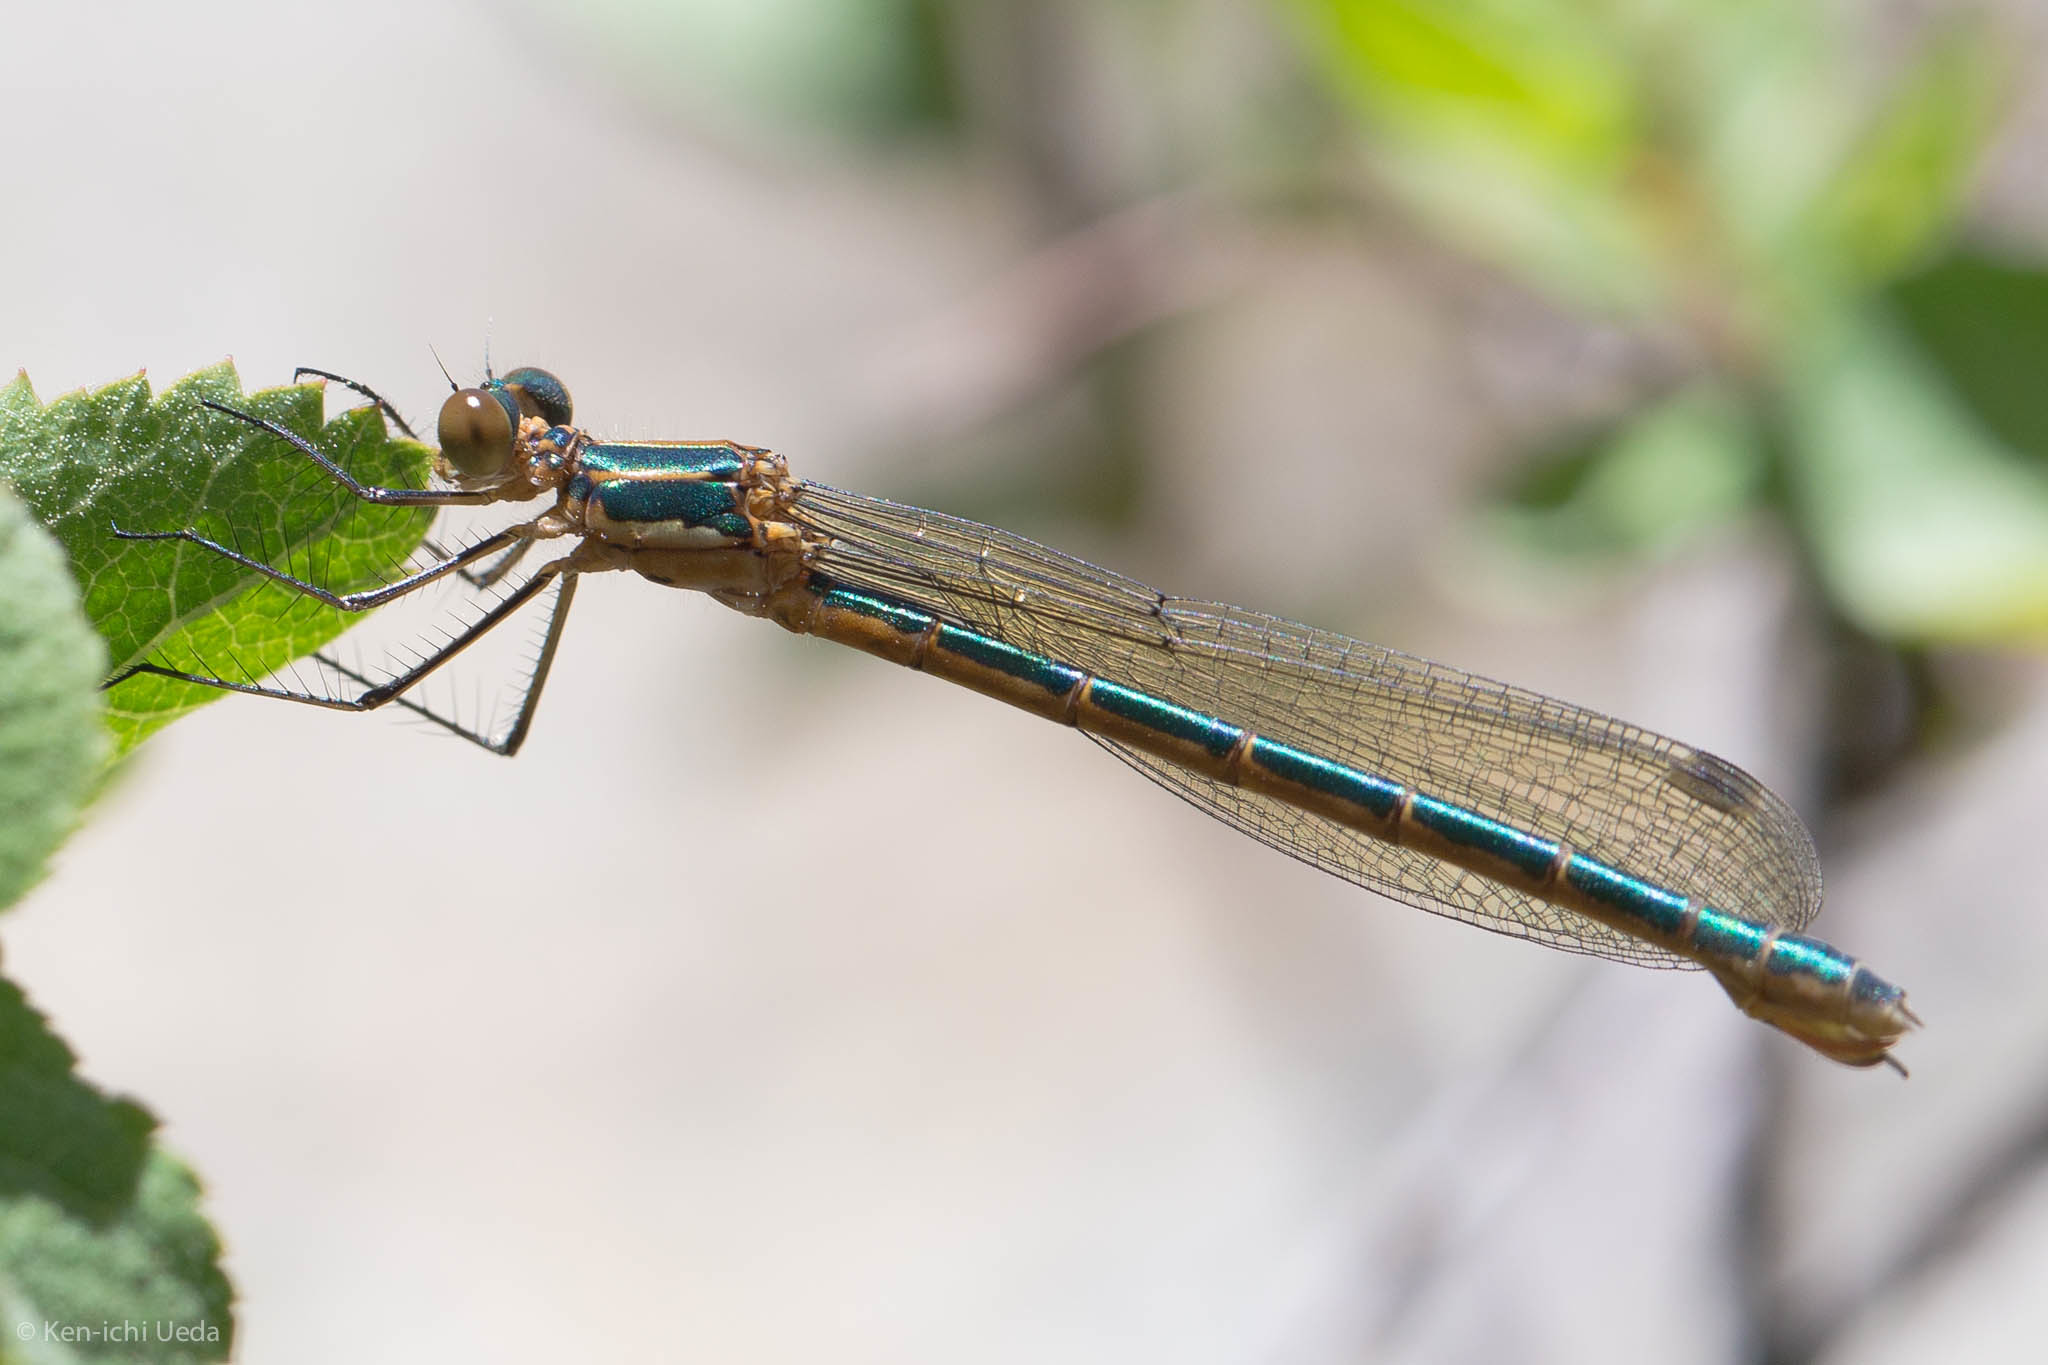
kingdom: Animalia
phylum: Arthropoda
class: Insecta
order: Odonata
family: Lestidae
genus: Lestes
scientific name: Lestes dryas
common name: Scarce emerald damselfly
